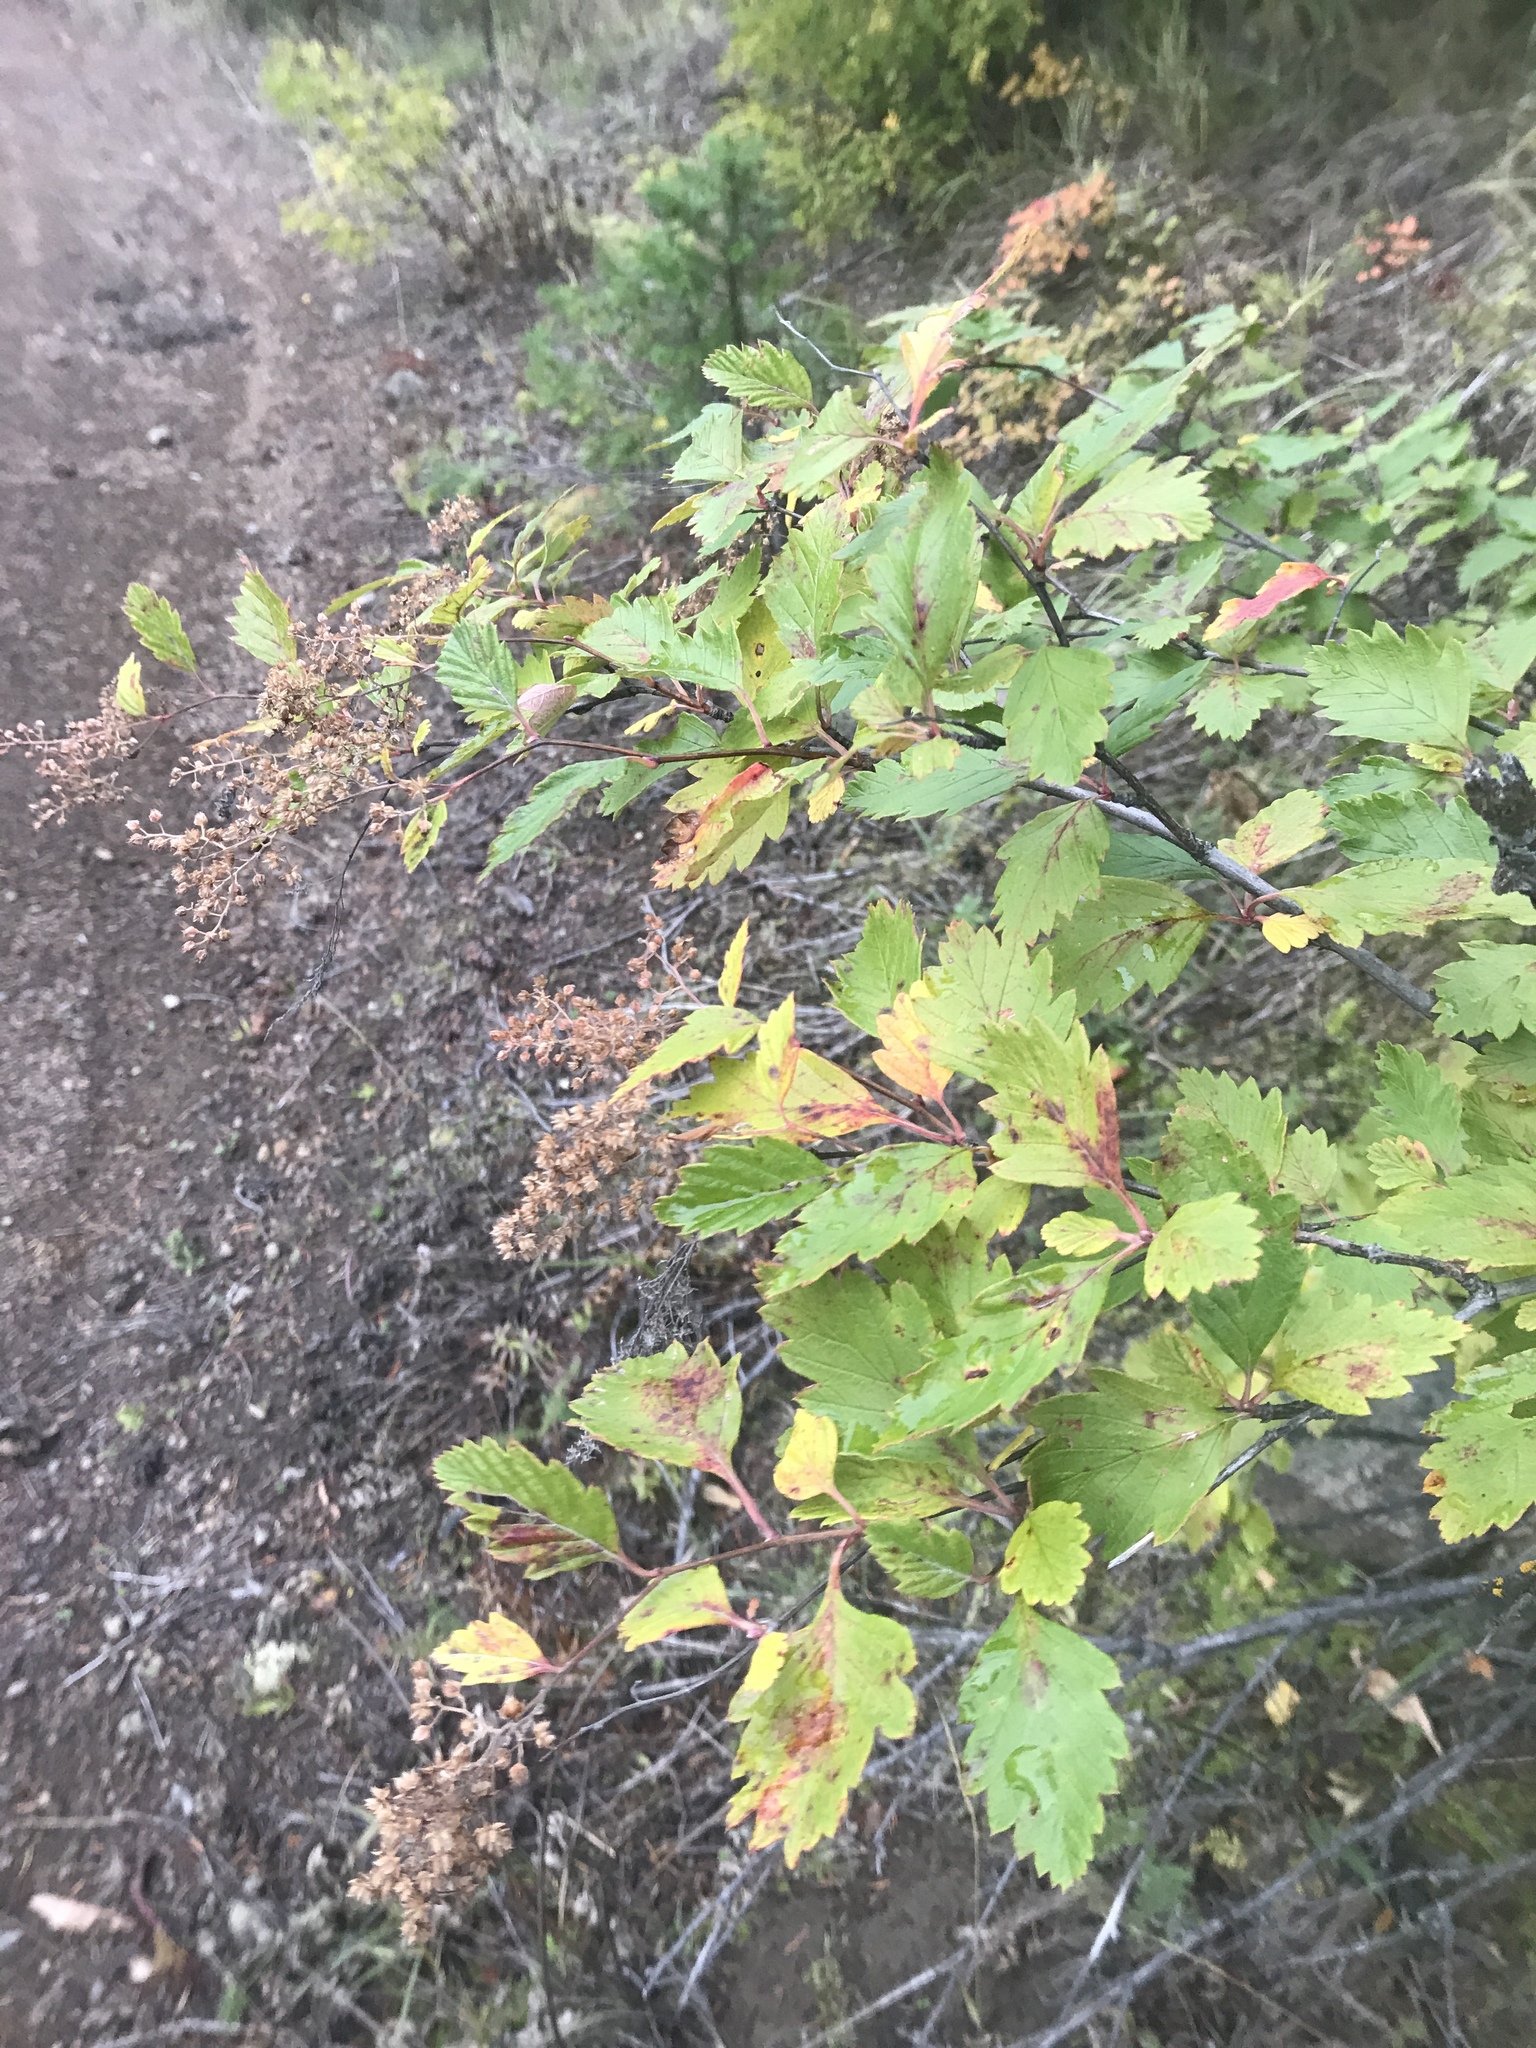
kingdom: Plantae
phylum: Tracheophyta
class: Magnoliopsida
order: Rosales
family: Rosaceae
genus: Holodiscus
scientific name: Holodiscus discolor
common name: Oceanspray
